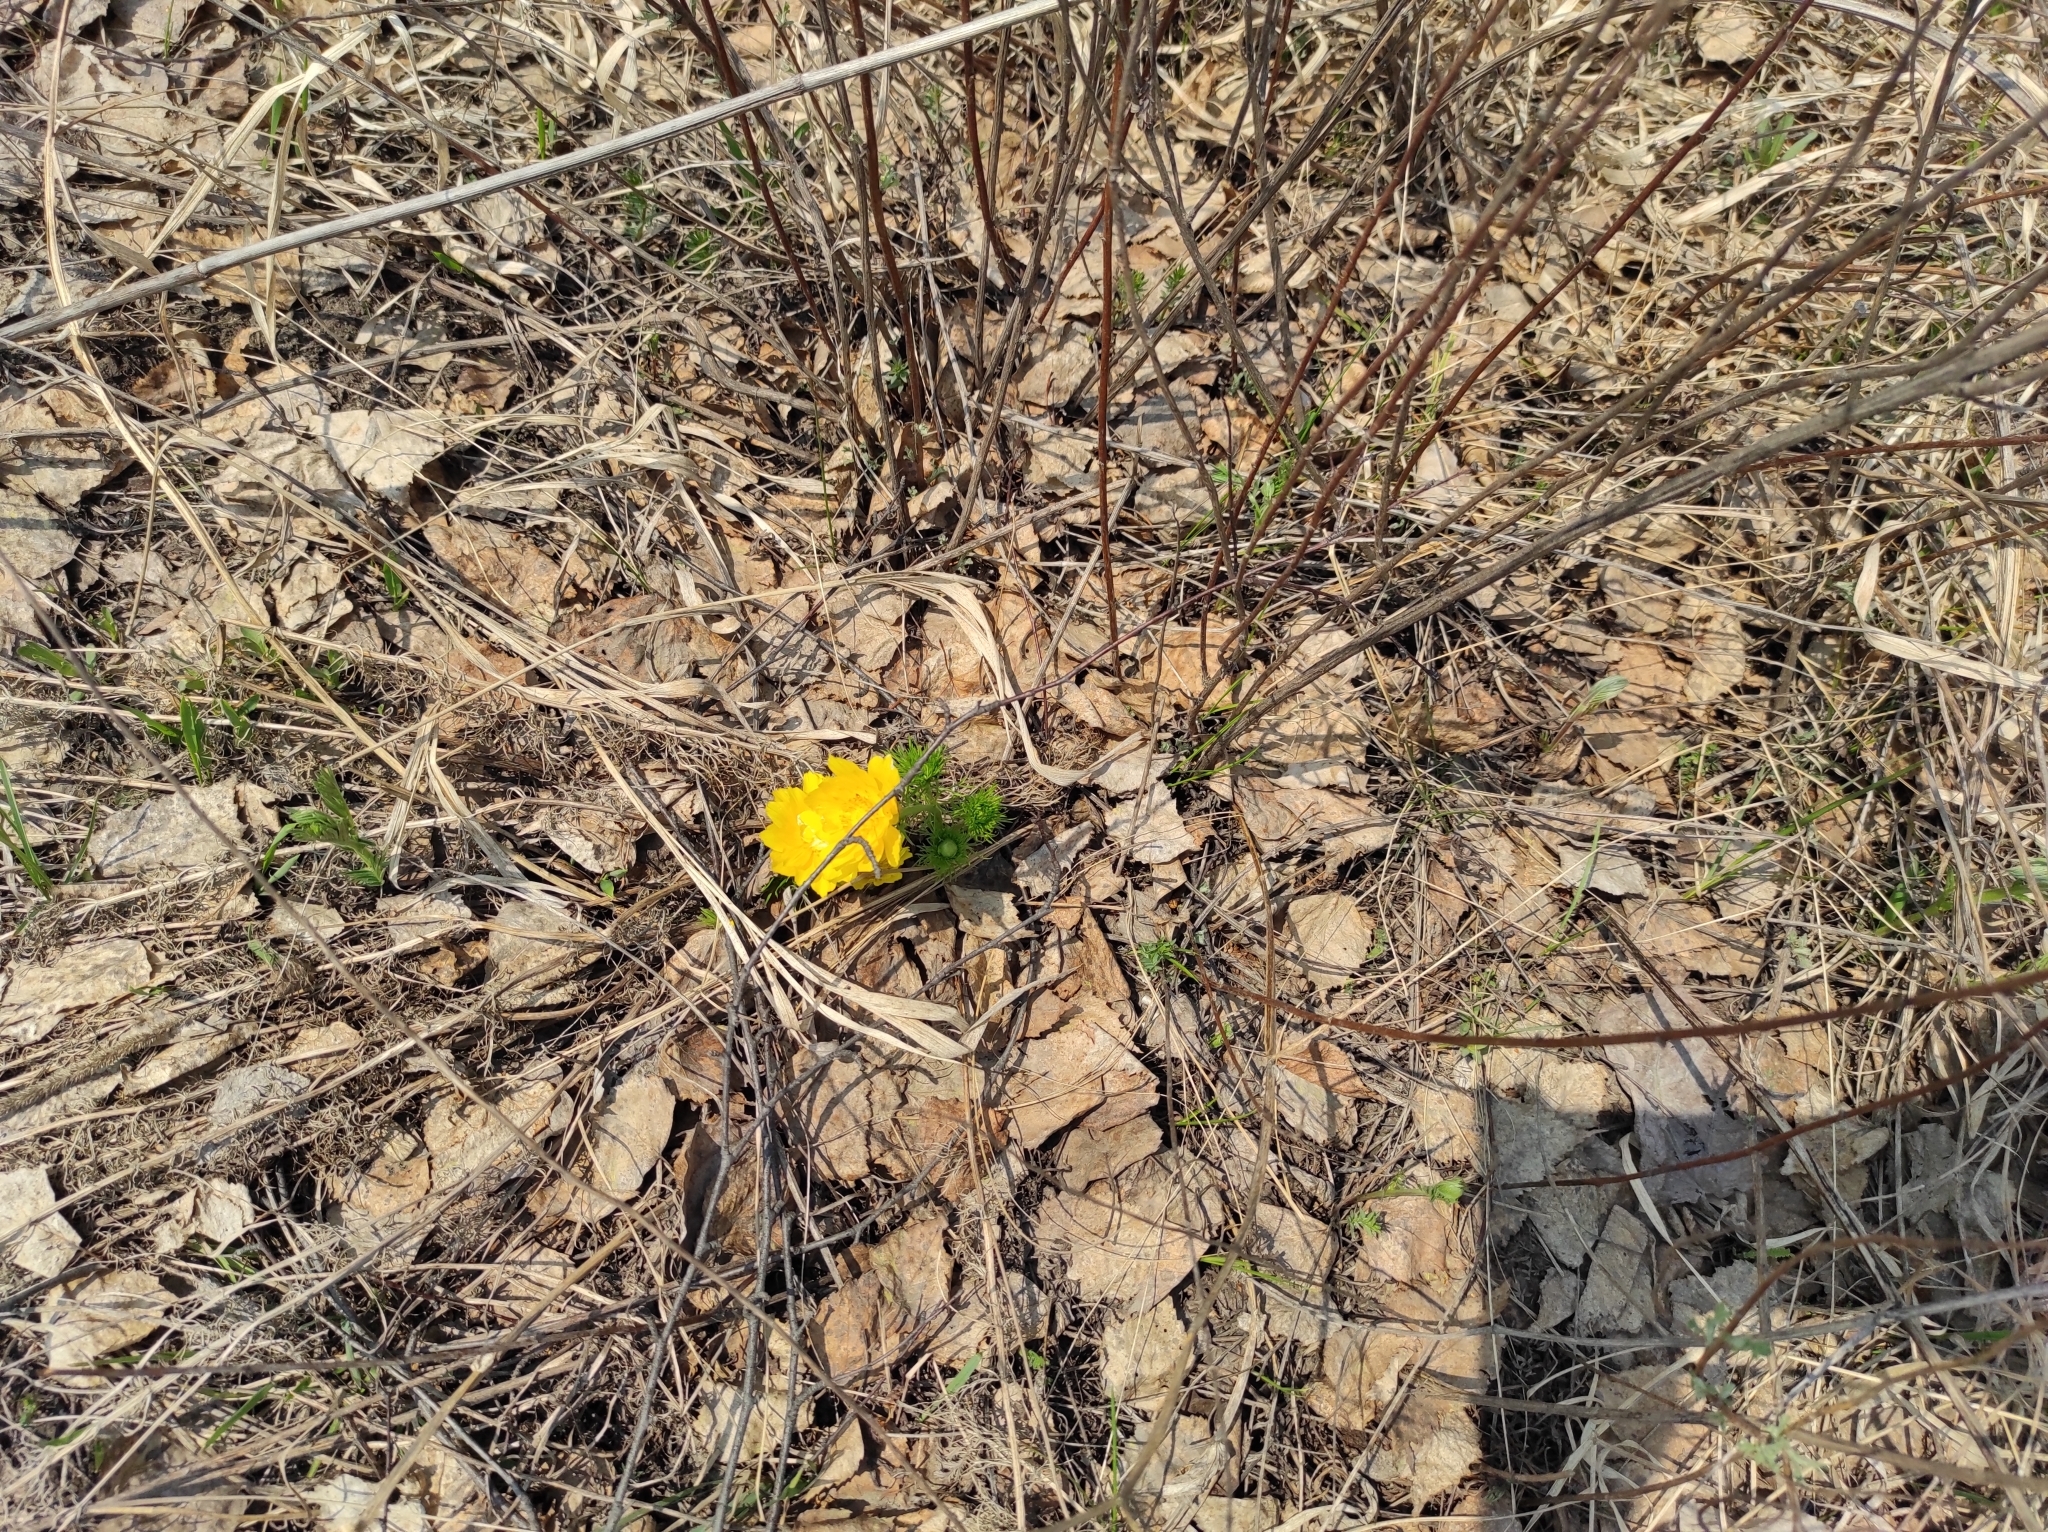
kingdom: Plantae
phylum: Tracheophyta
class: Magnoliopsida
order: Ranunculales
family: Ranunculaceae
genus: Adonis
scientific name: Adonis vernalis
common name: Yellow pheasants-eye
